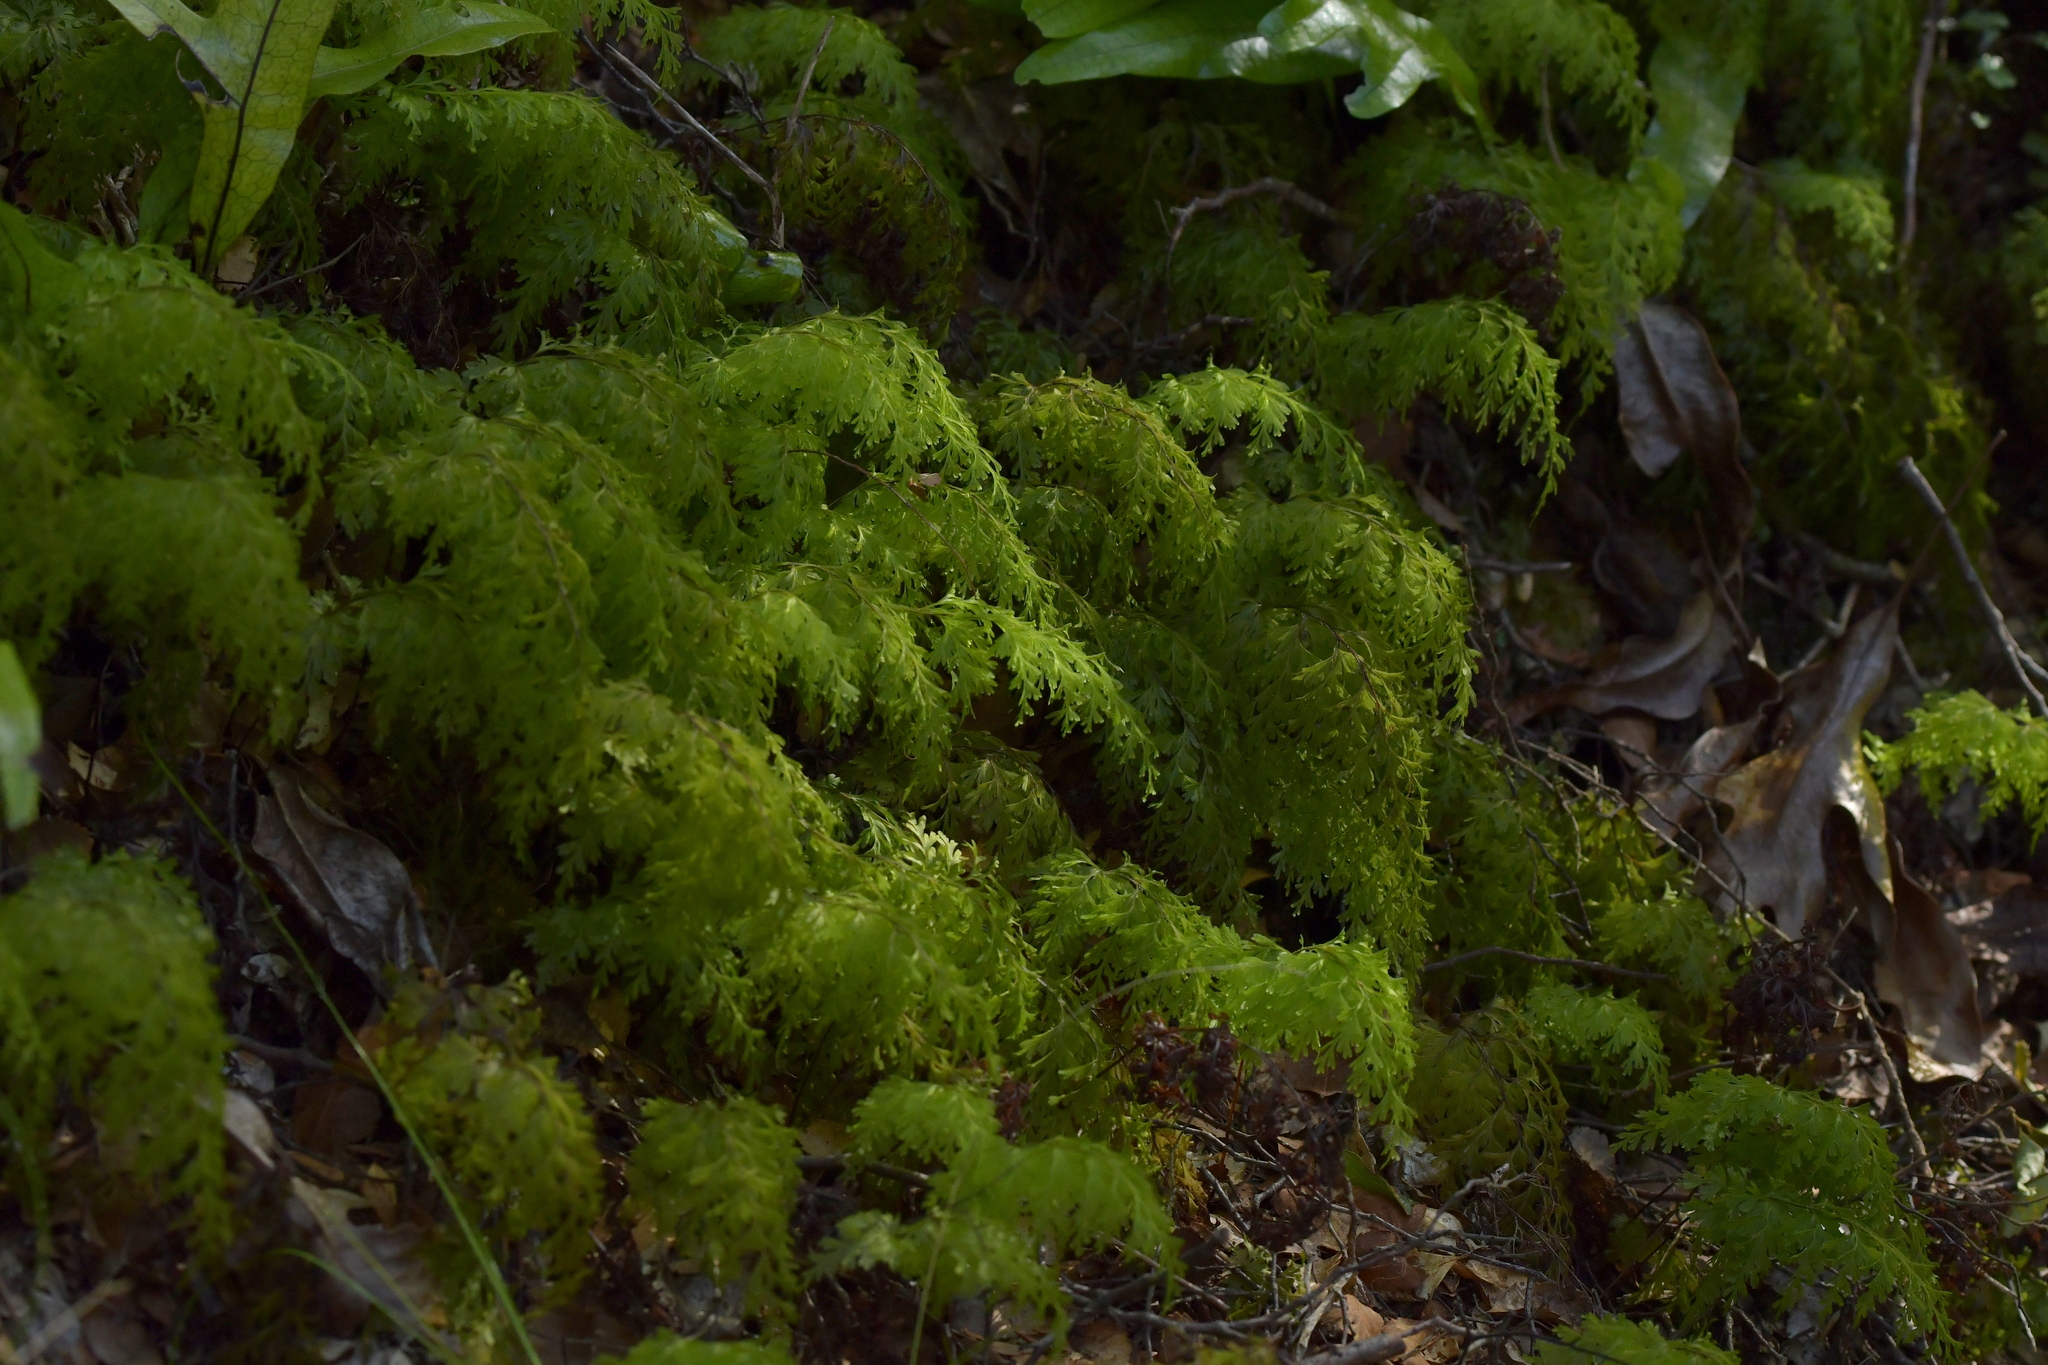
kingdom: Plantae
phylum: Tracheophyta
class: Polypodiopsida
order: Hymenophyllales
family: Hymenophyllaceae
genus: Hymenophyllum
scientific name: Hymenophyllum demissum
